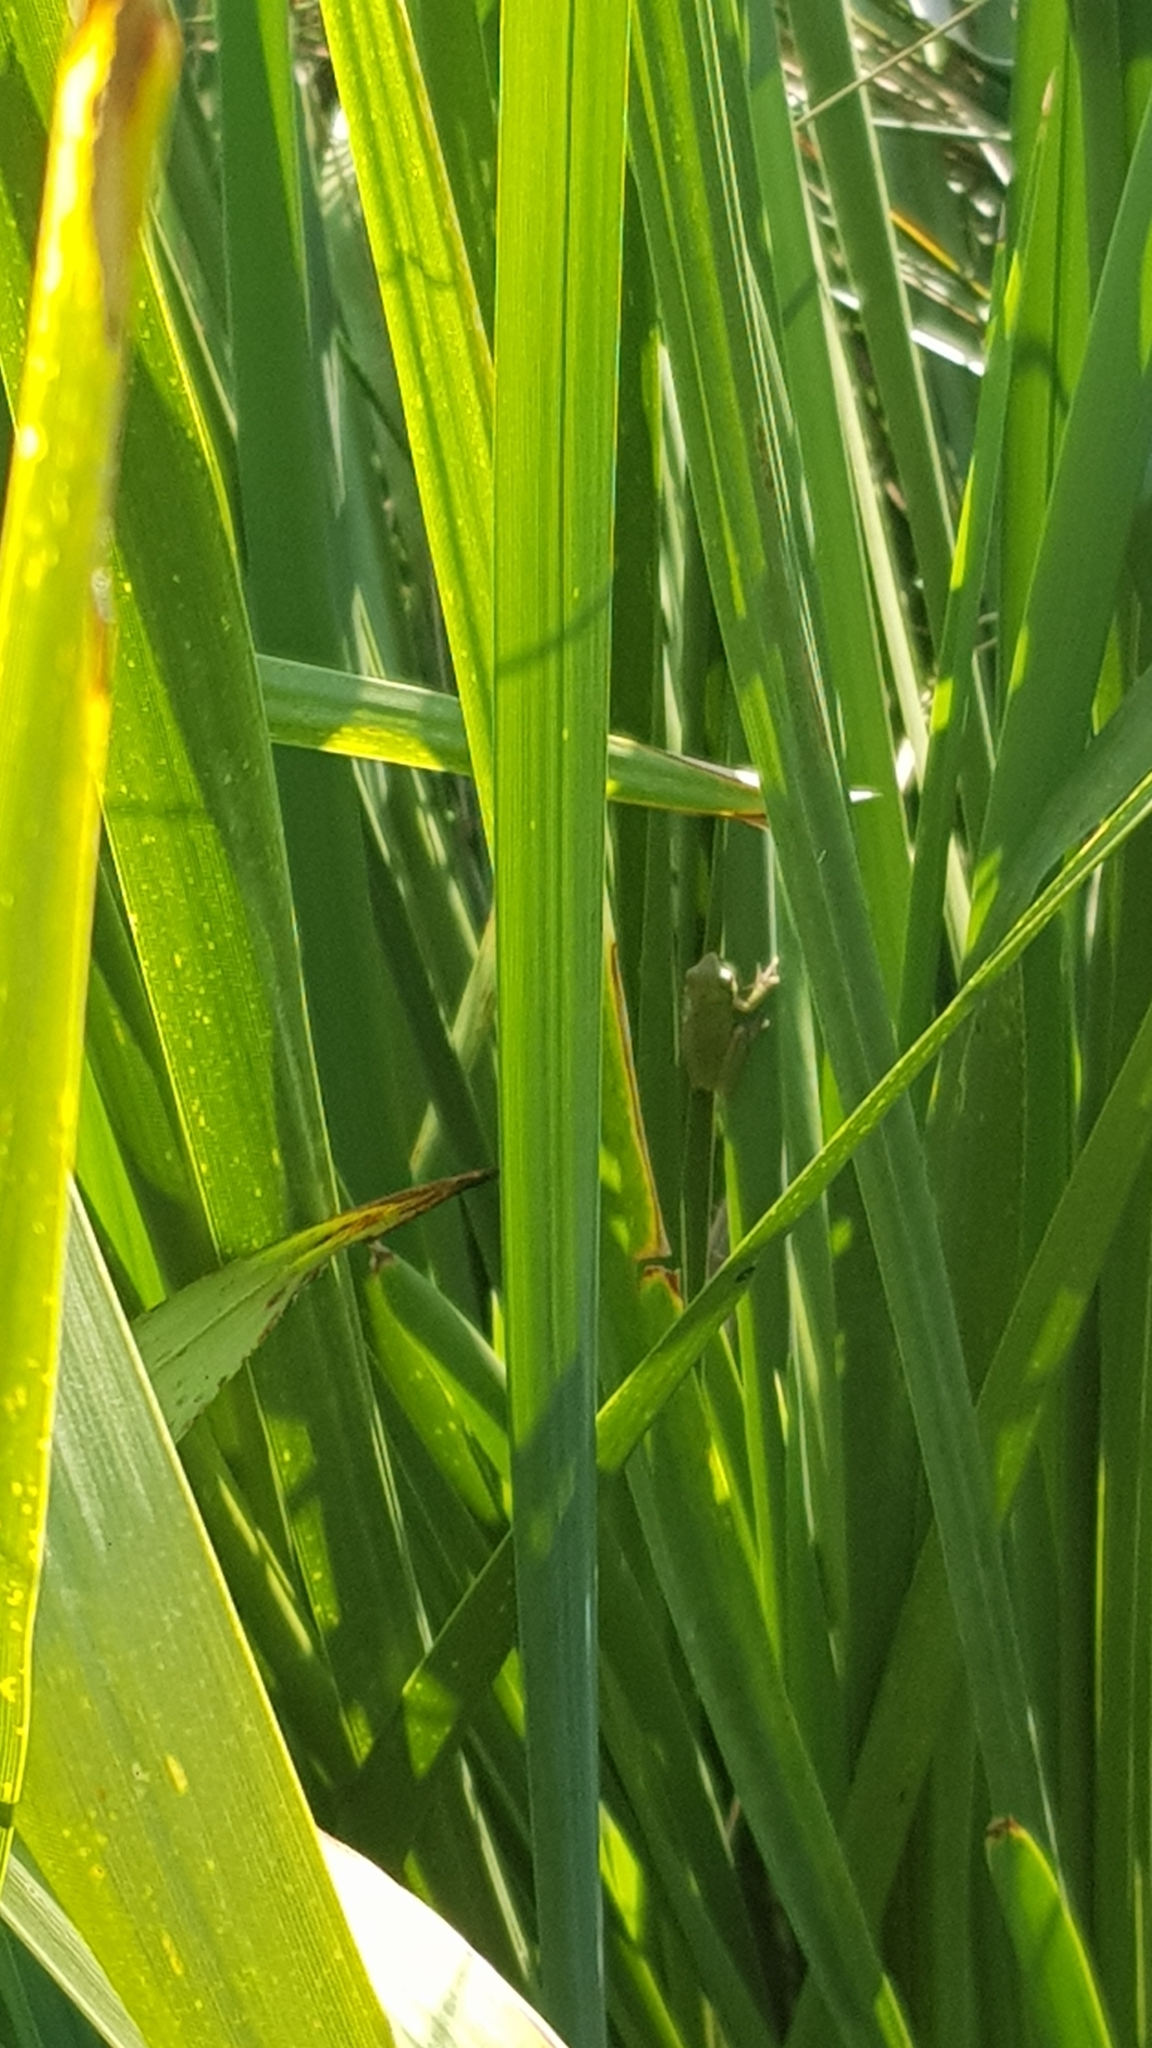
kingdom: Animalia
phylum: Chordata
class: Amphibia
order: Anura
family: Pelodryadidae
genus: Litoria
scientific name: Litoria fallax
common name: Eastern dwarf treefrog
